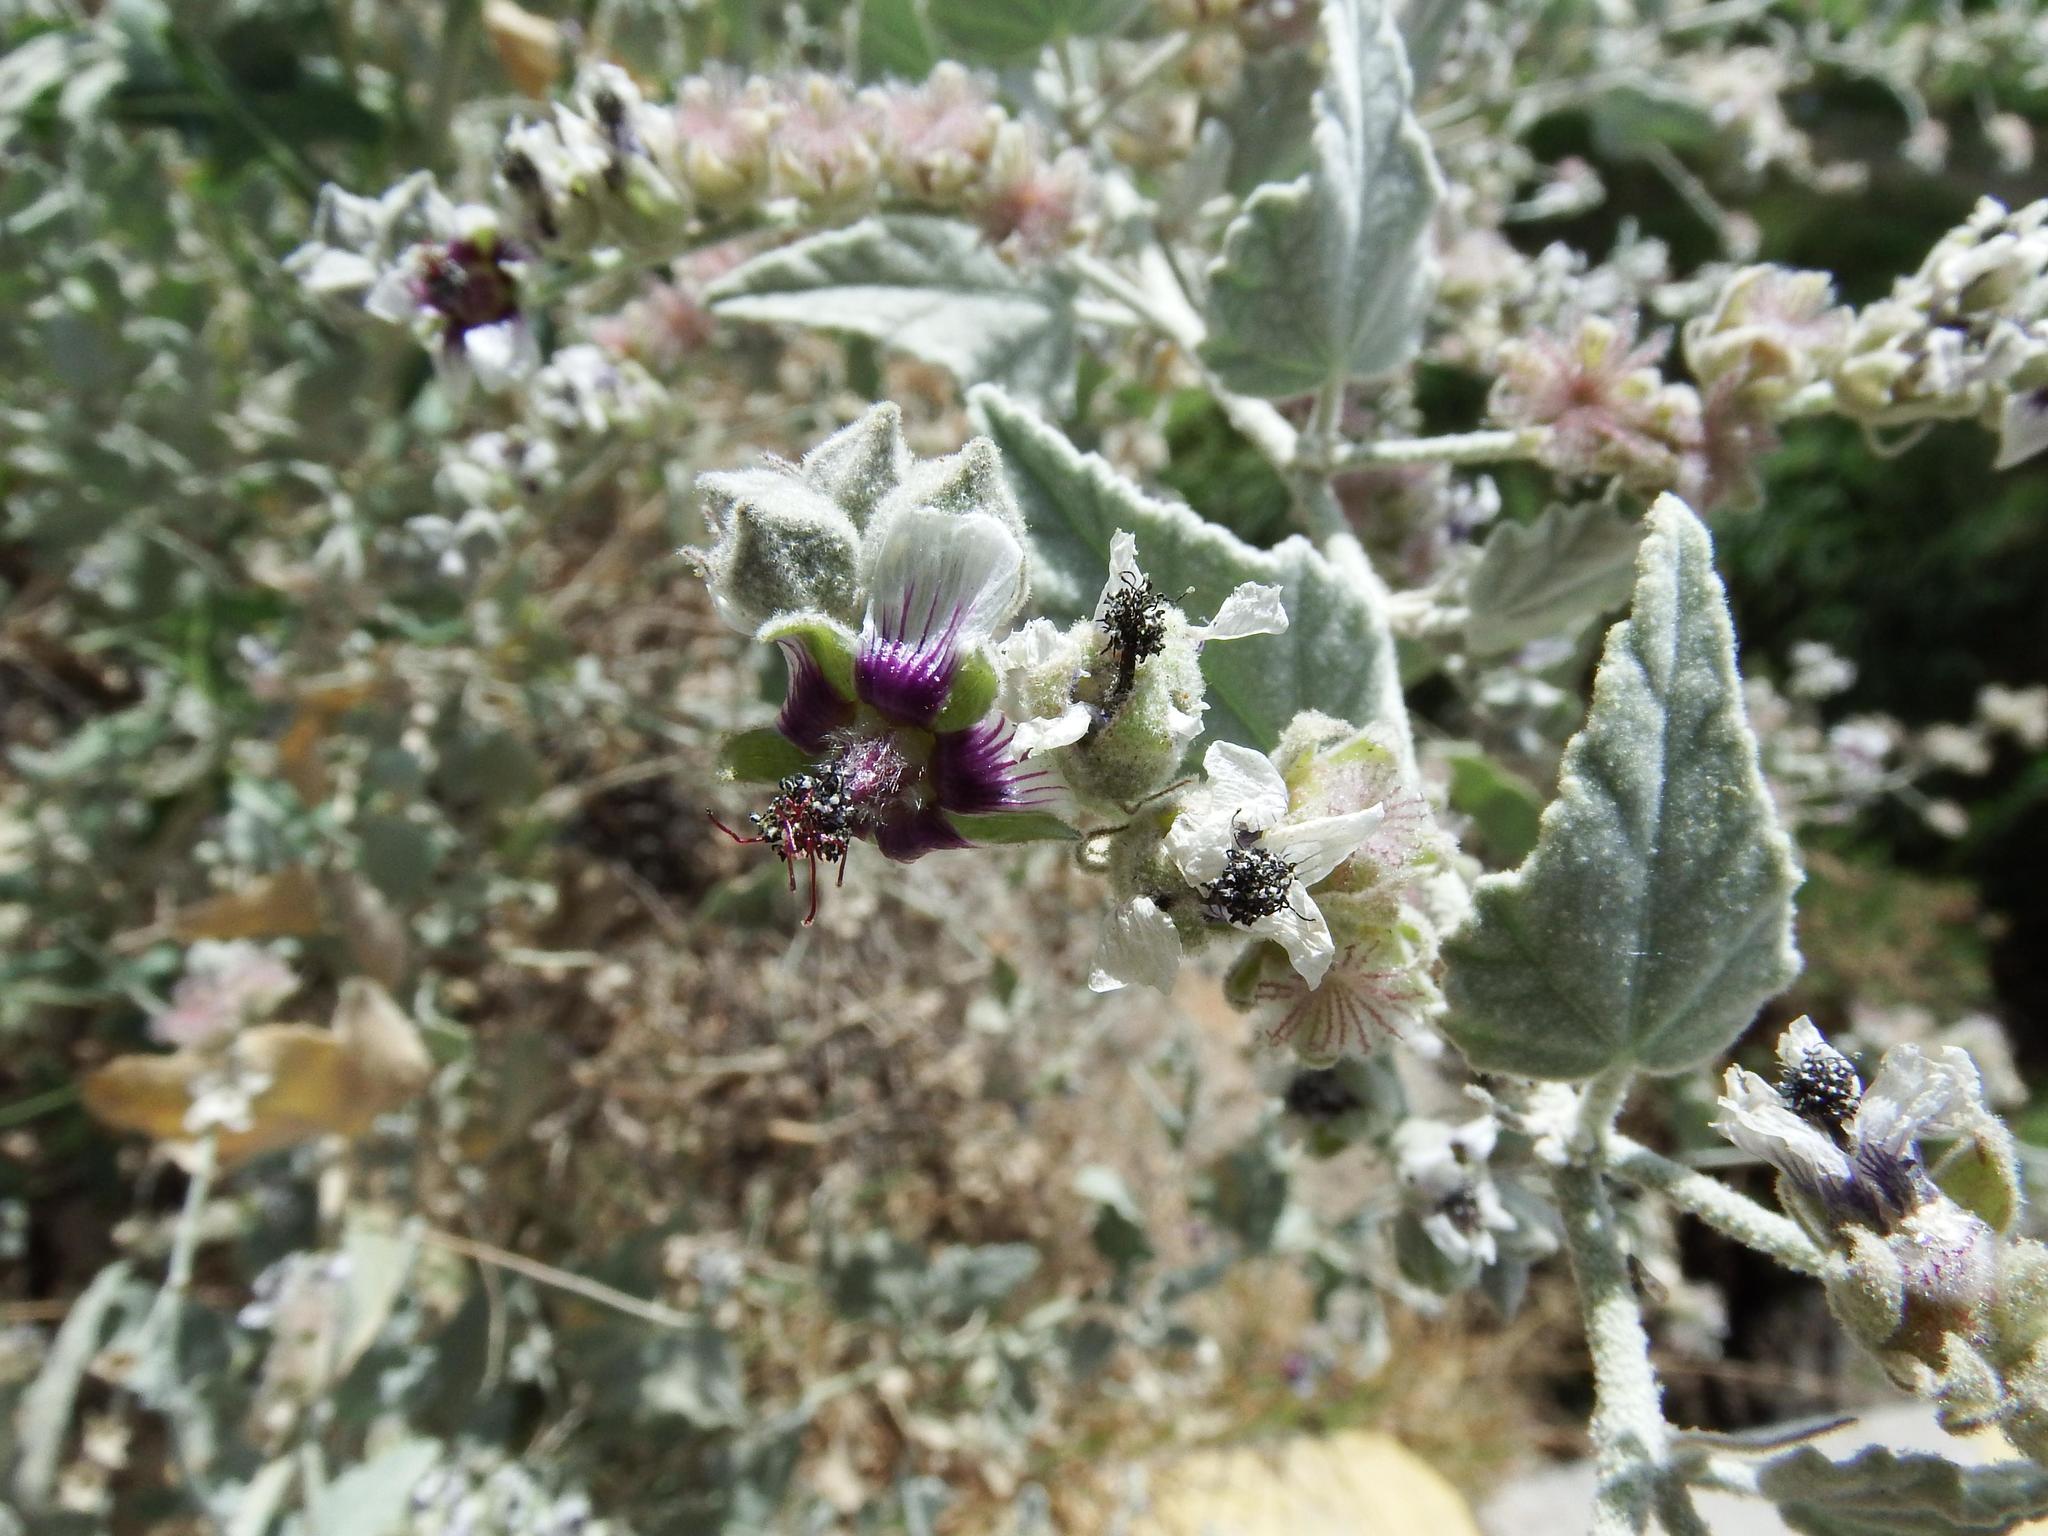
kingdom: Plantae
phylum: Tracheophyta
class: Magnoliopsida
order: Malvales
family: Malvaceae
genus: Tarasa
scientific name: Tarasa operculata
